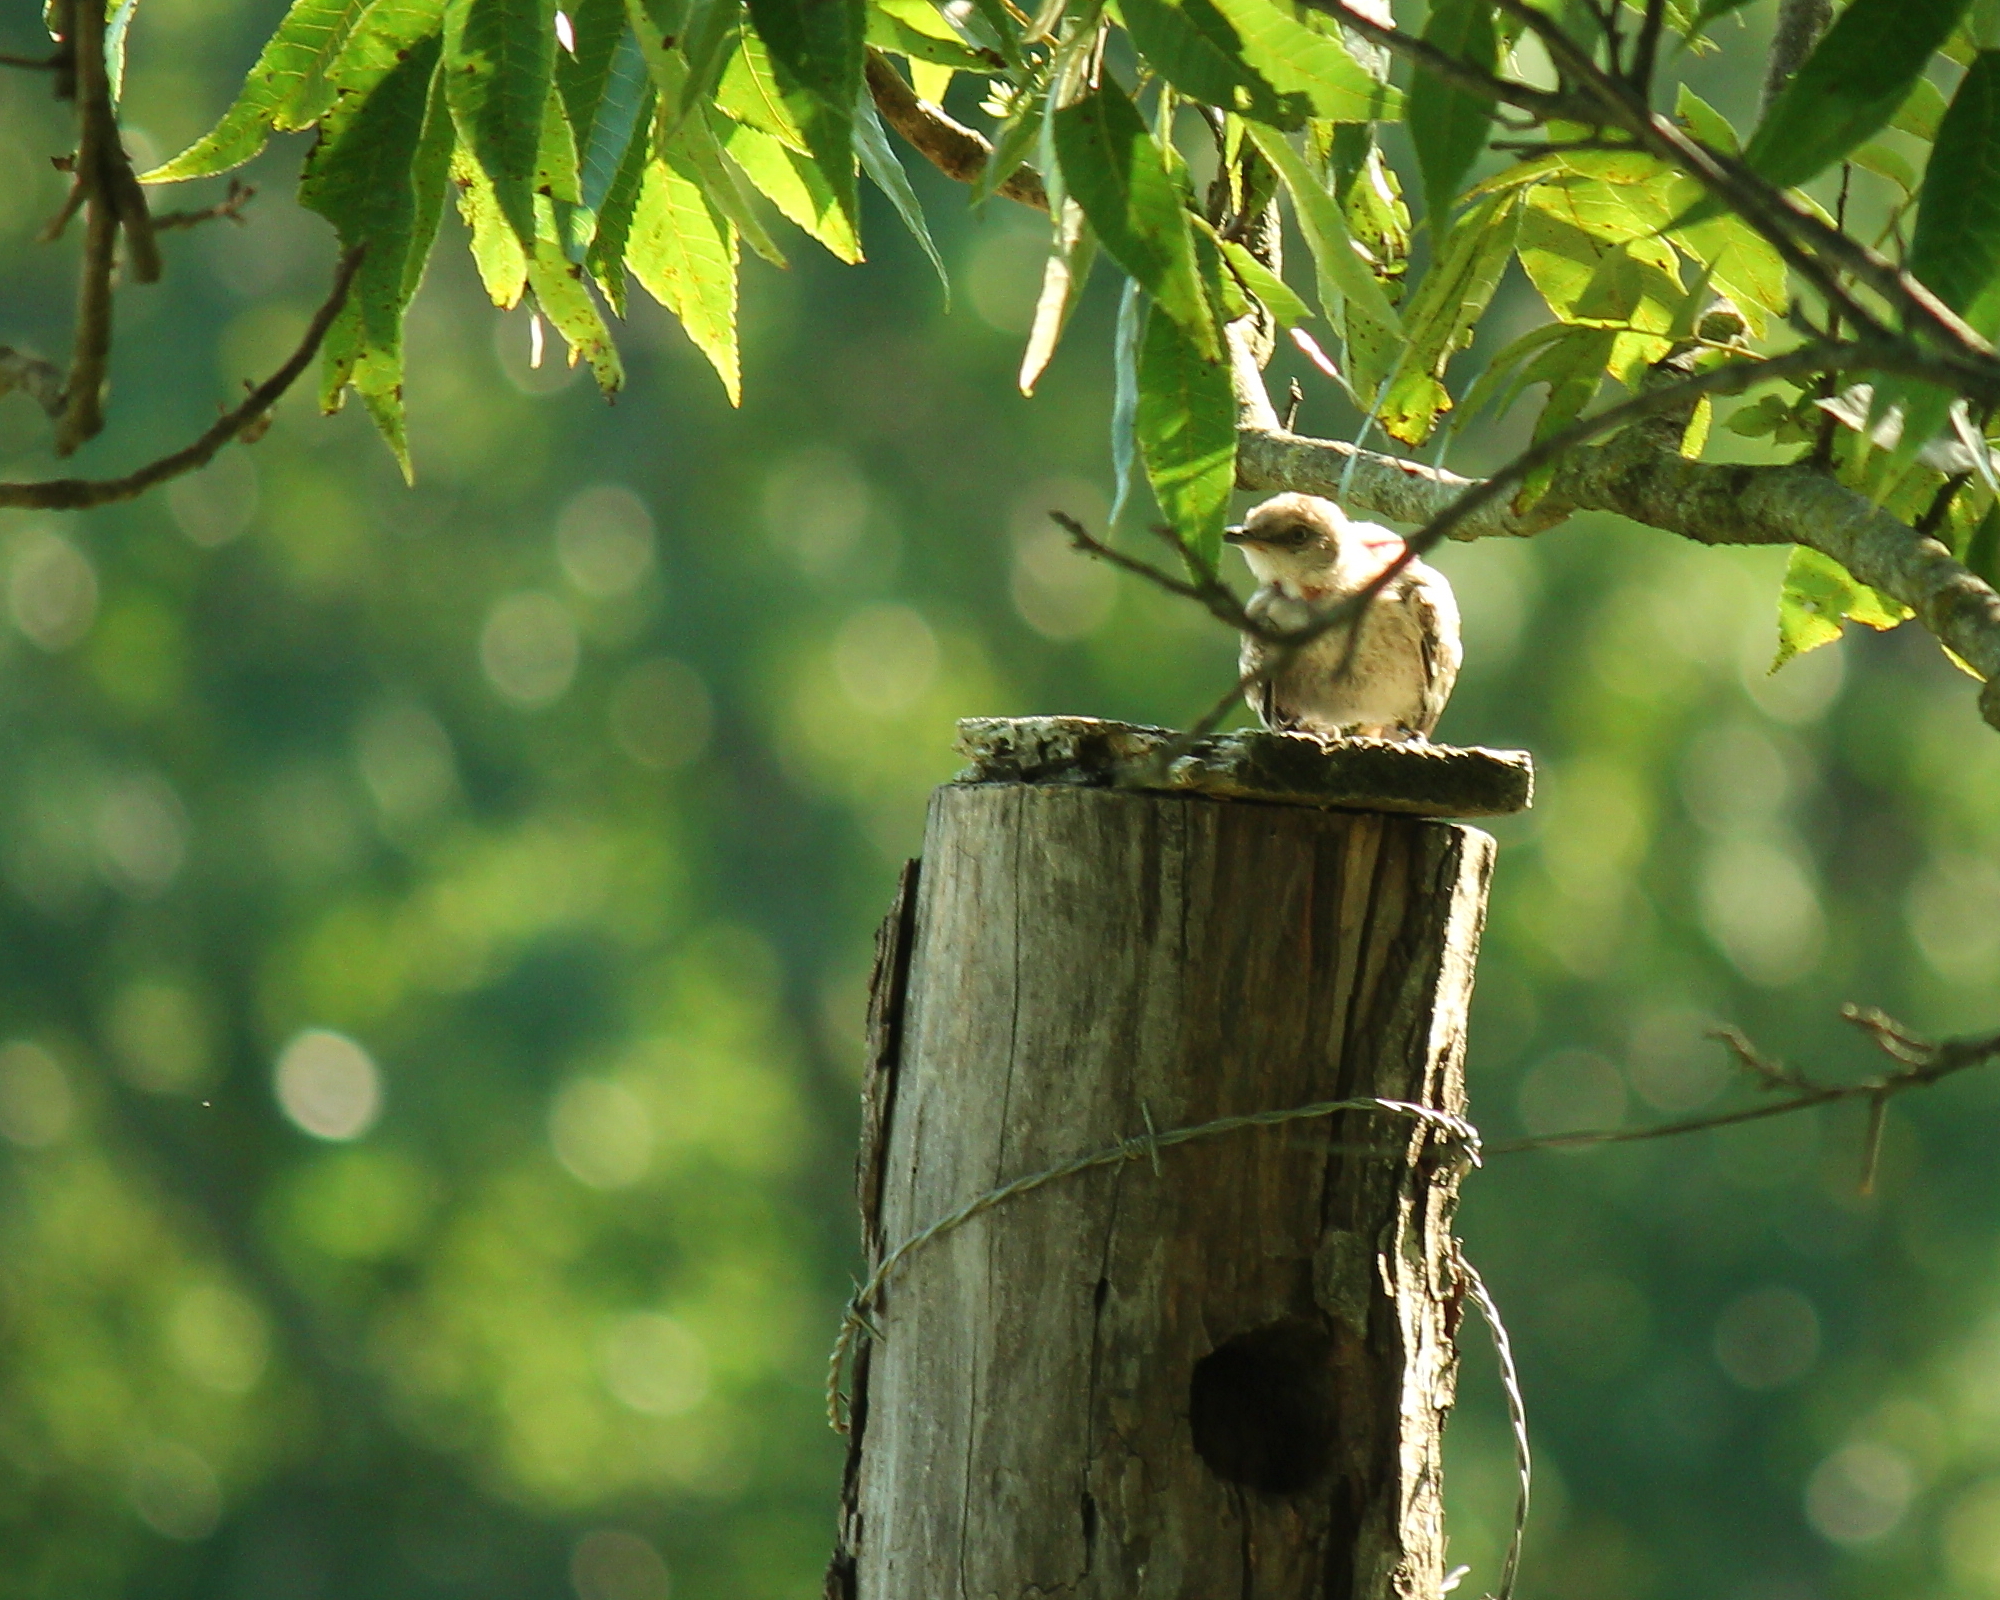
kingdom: Animalia
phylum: Chordata
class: Aves
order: Passeriformes
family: Mimidae
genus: Mimus
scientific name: Mimus polyglottos
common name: Northern mockingbird
